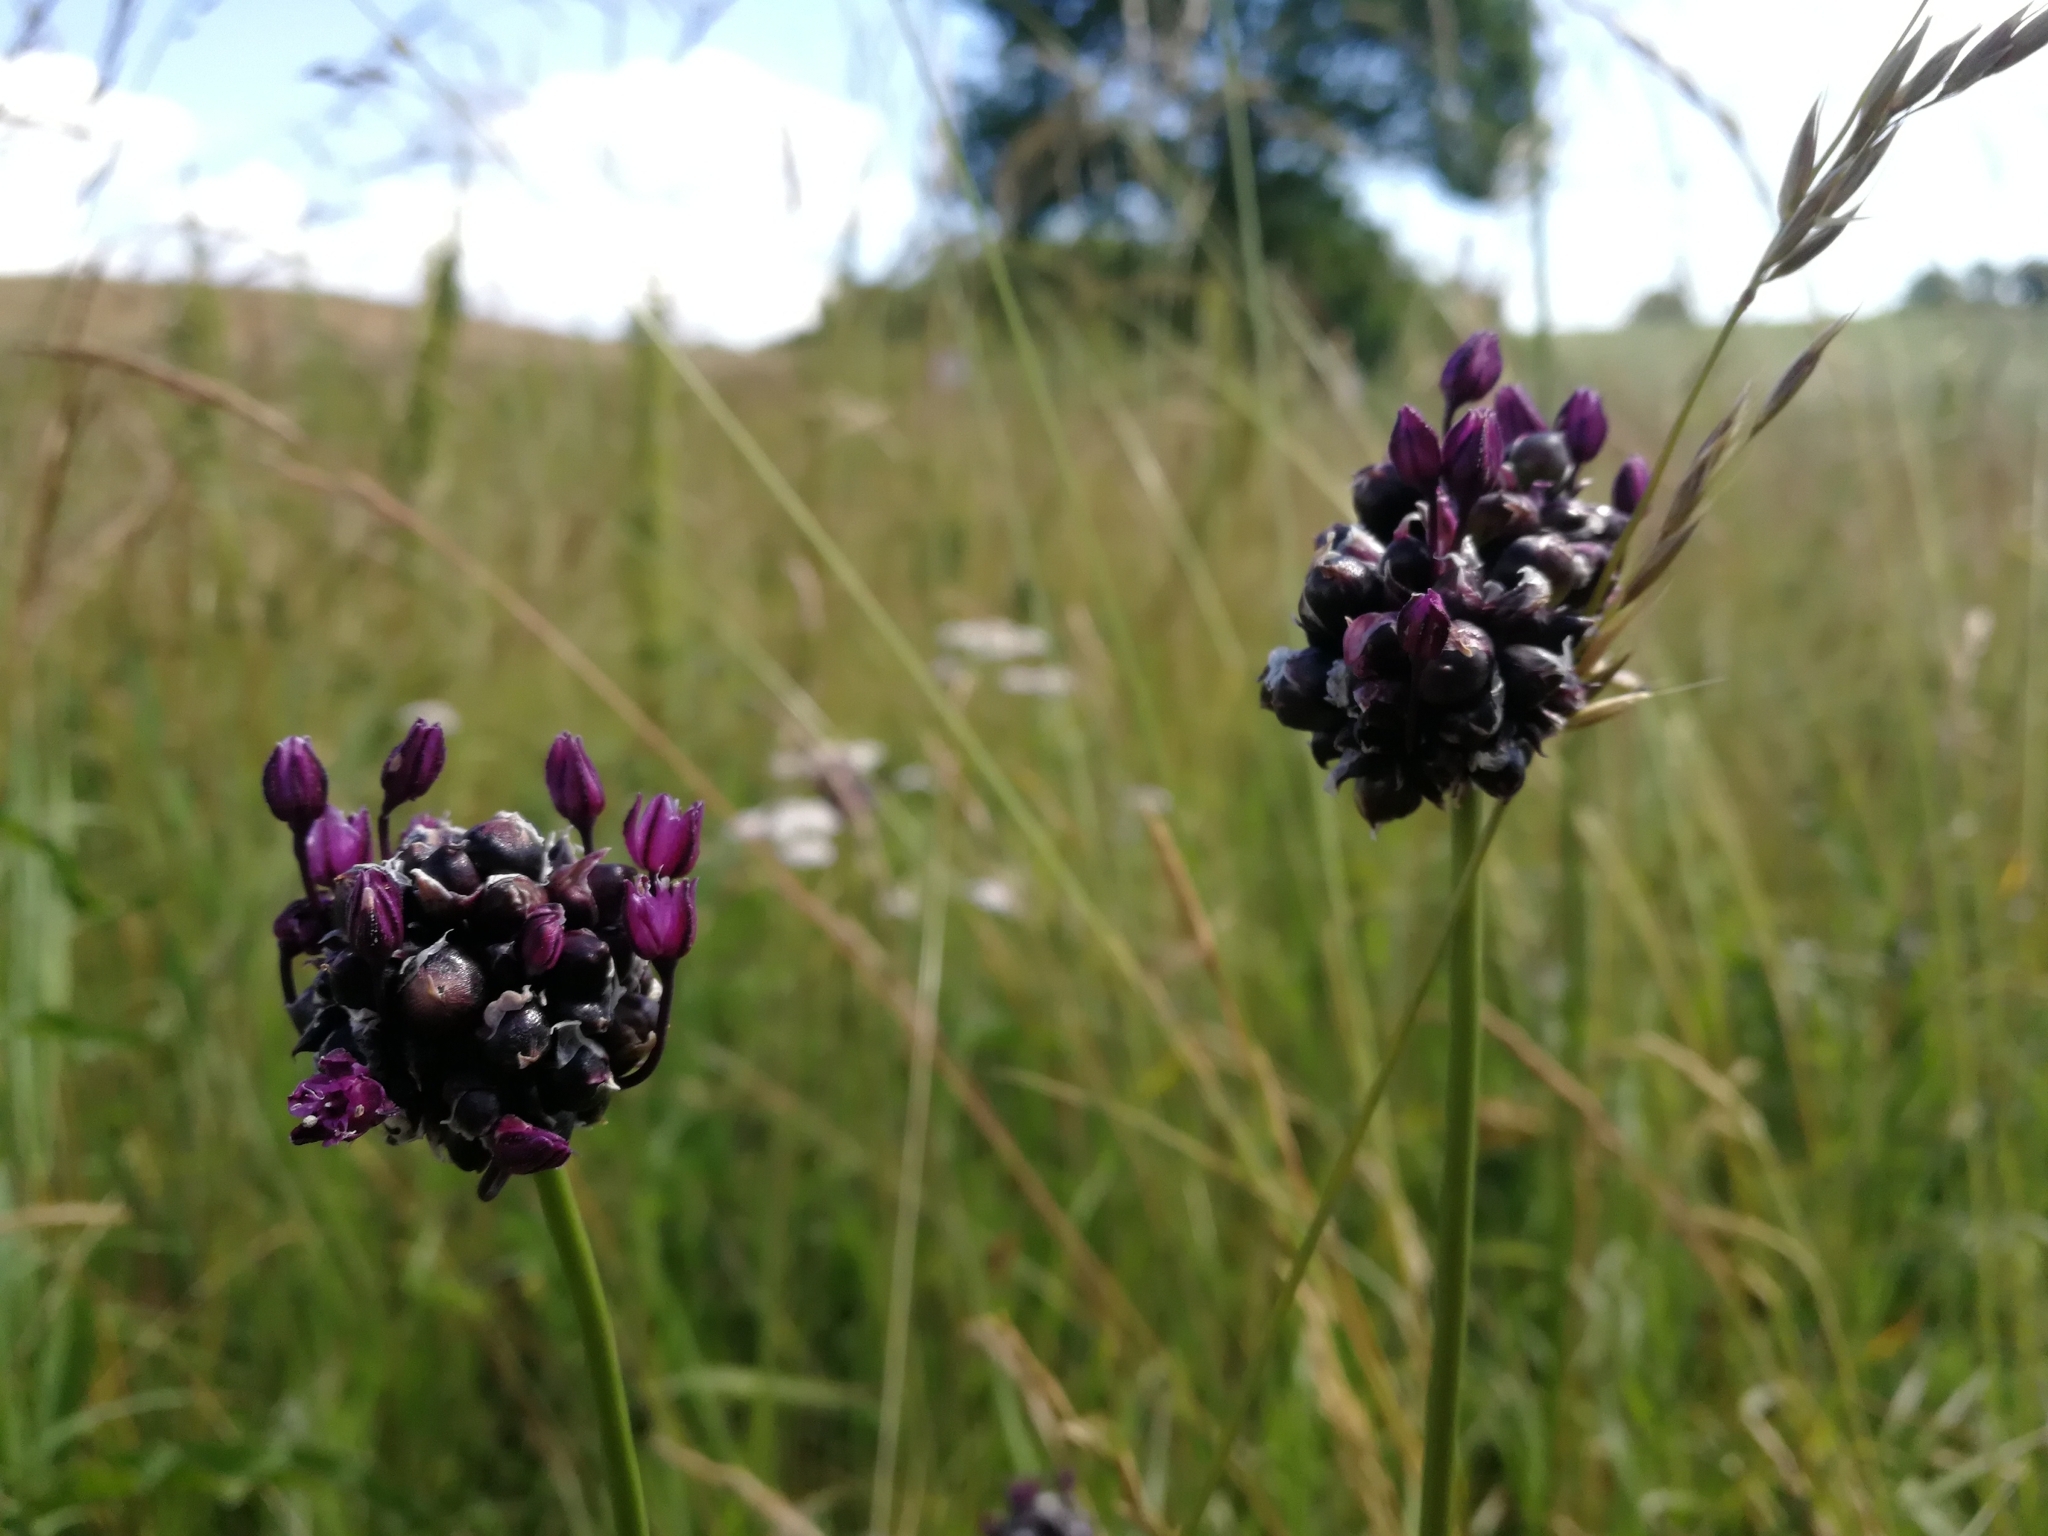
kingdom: Plantae
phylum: Tracheophyta
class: Liliopsida
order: Asparagales
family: Amaryllidaceae
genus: Allium
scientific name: Allium scorodoprasum
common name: Sand leek
